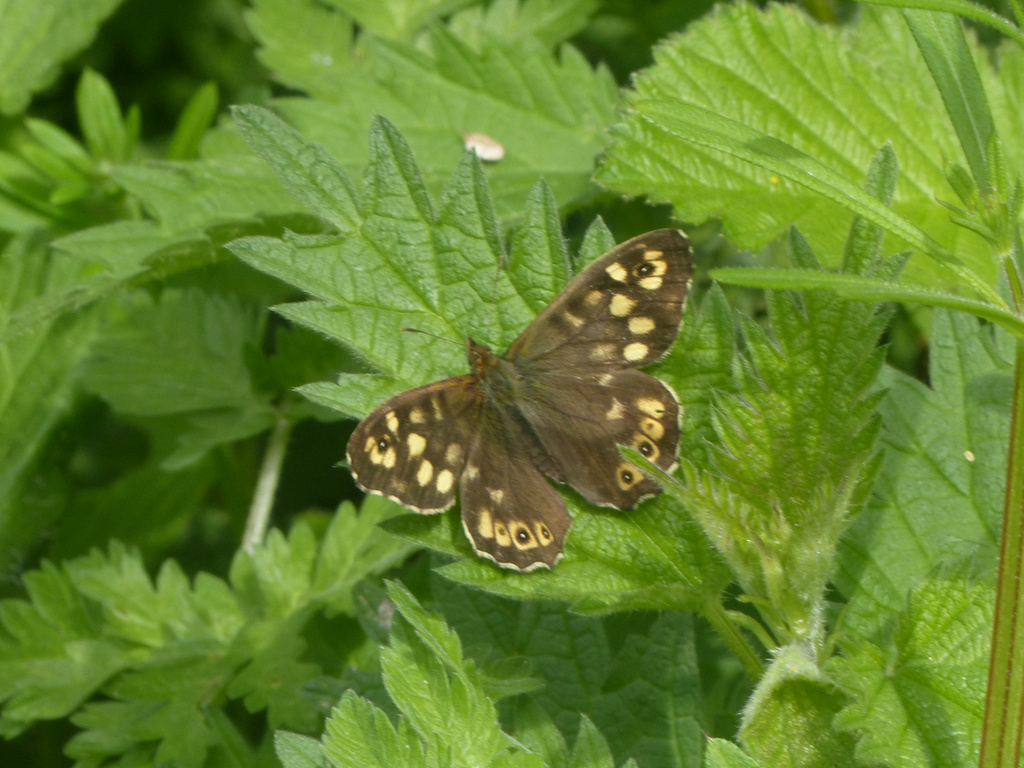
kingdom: Animalia
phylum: Arthropoda
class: Insecta
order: Lepidoptera
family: Nymphalidae
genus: Pararge
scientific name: Pararge aegeria
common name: Speckled wood
